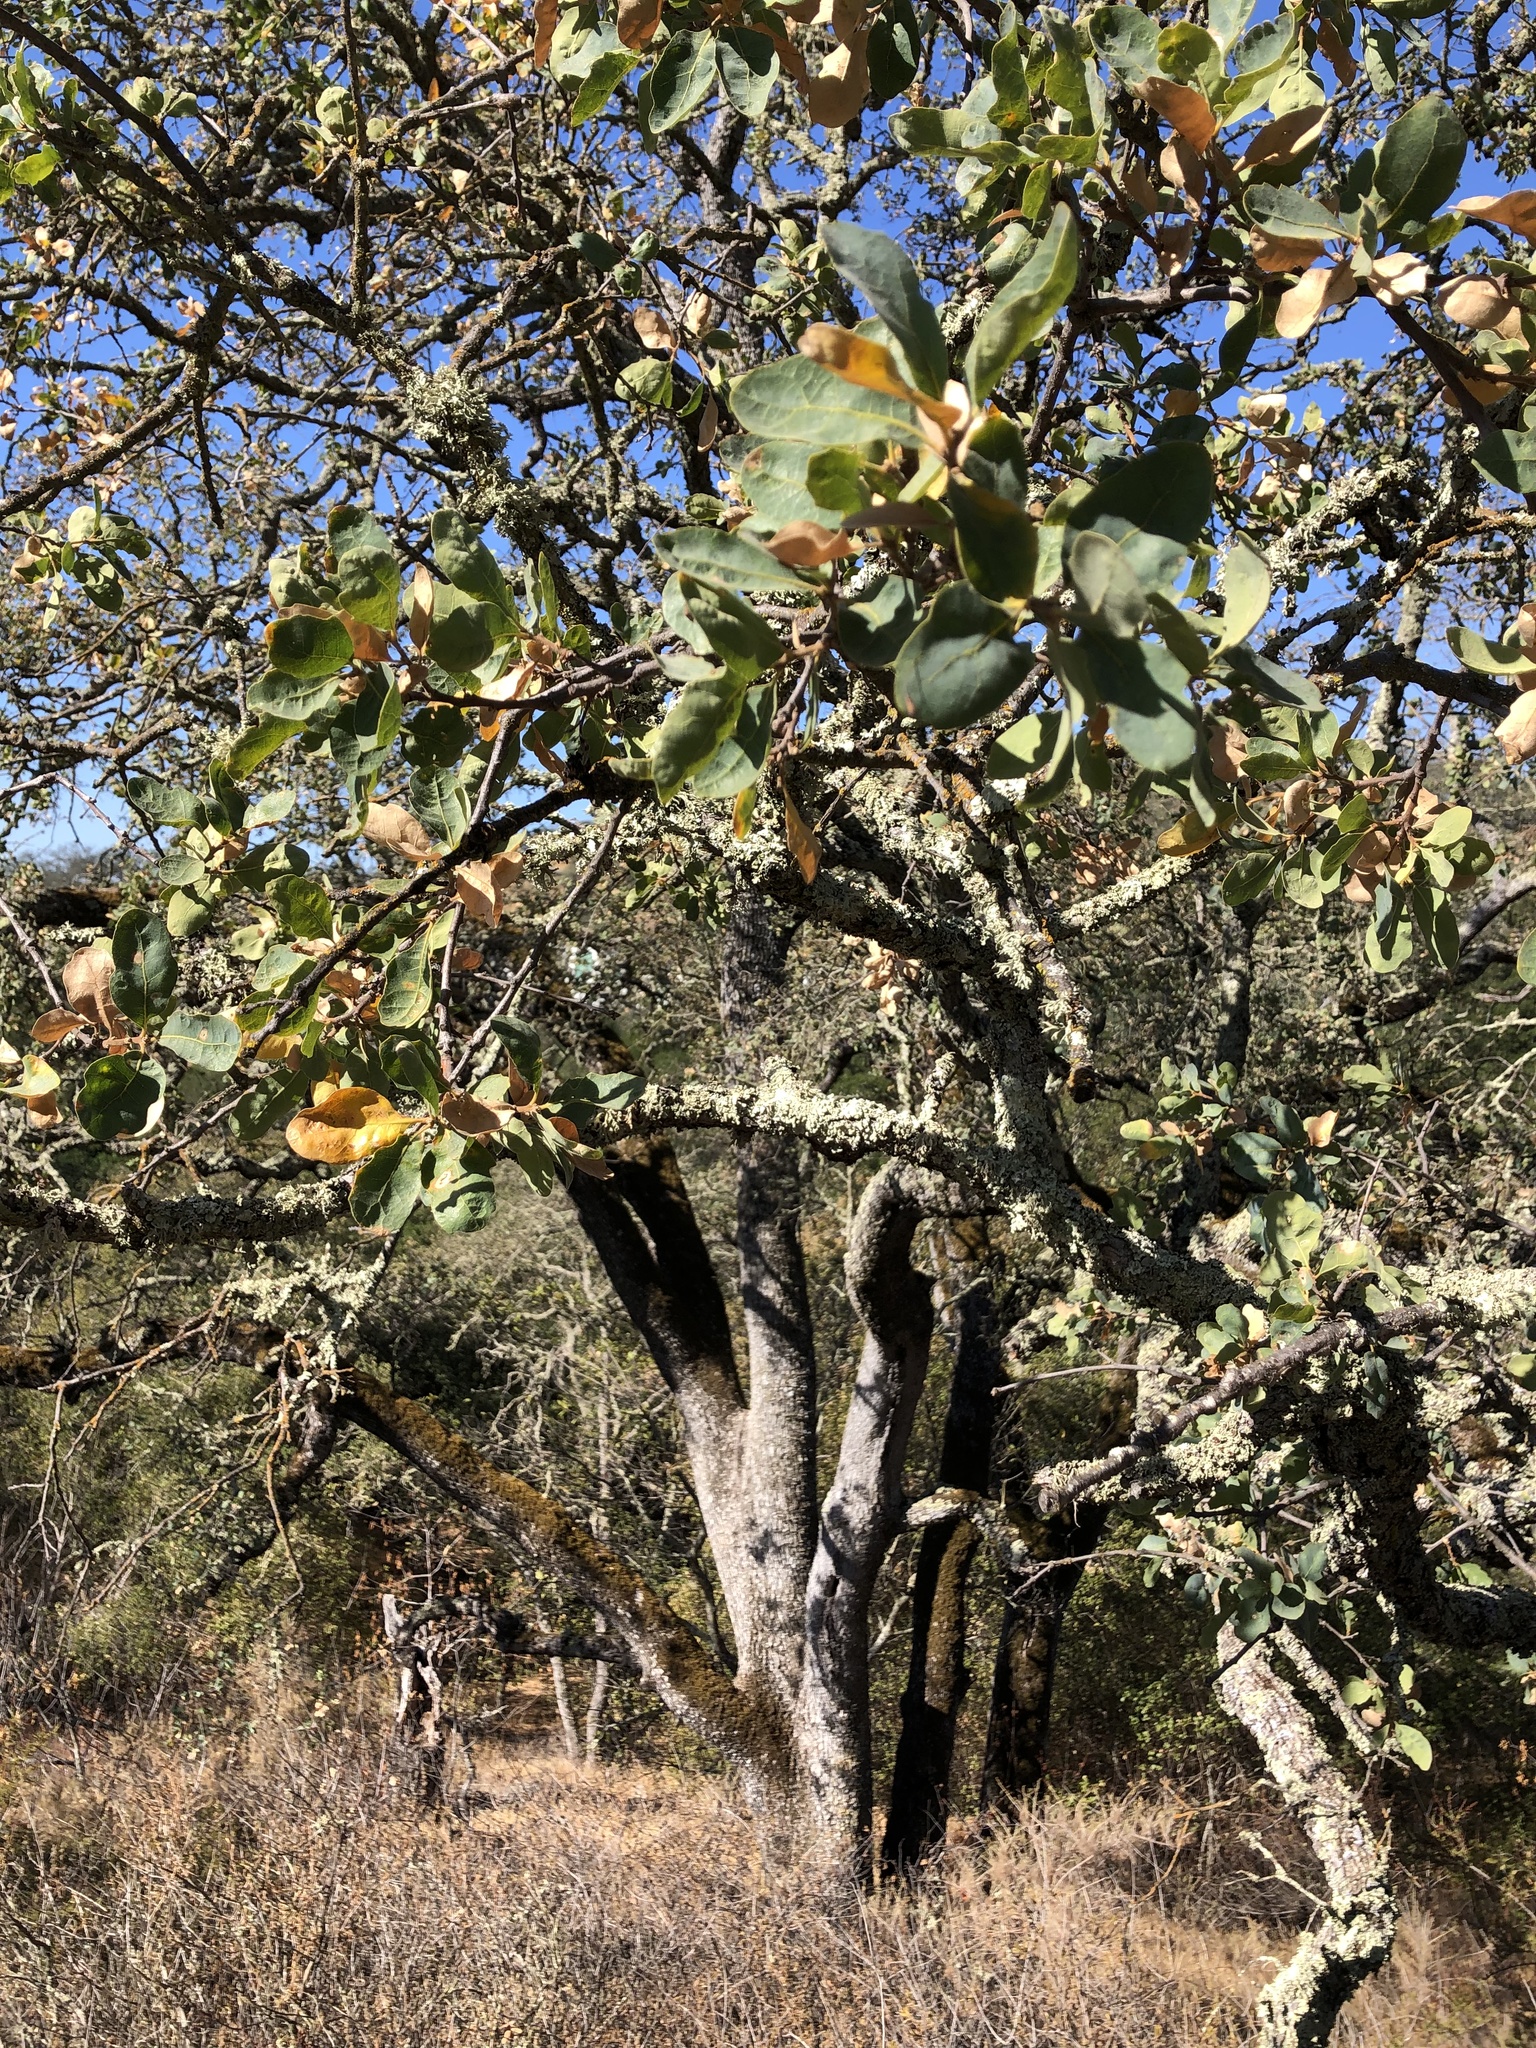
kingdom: Plantae
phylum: Tracheophyta
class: Magnoliopsida
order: Fagales
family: Fagaceae
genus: Quercus
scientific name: Quercus douglasii
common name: Blue oak
